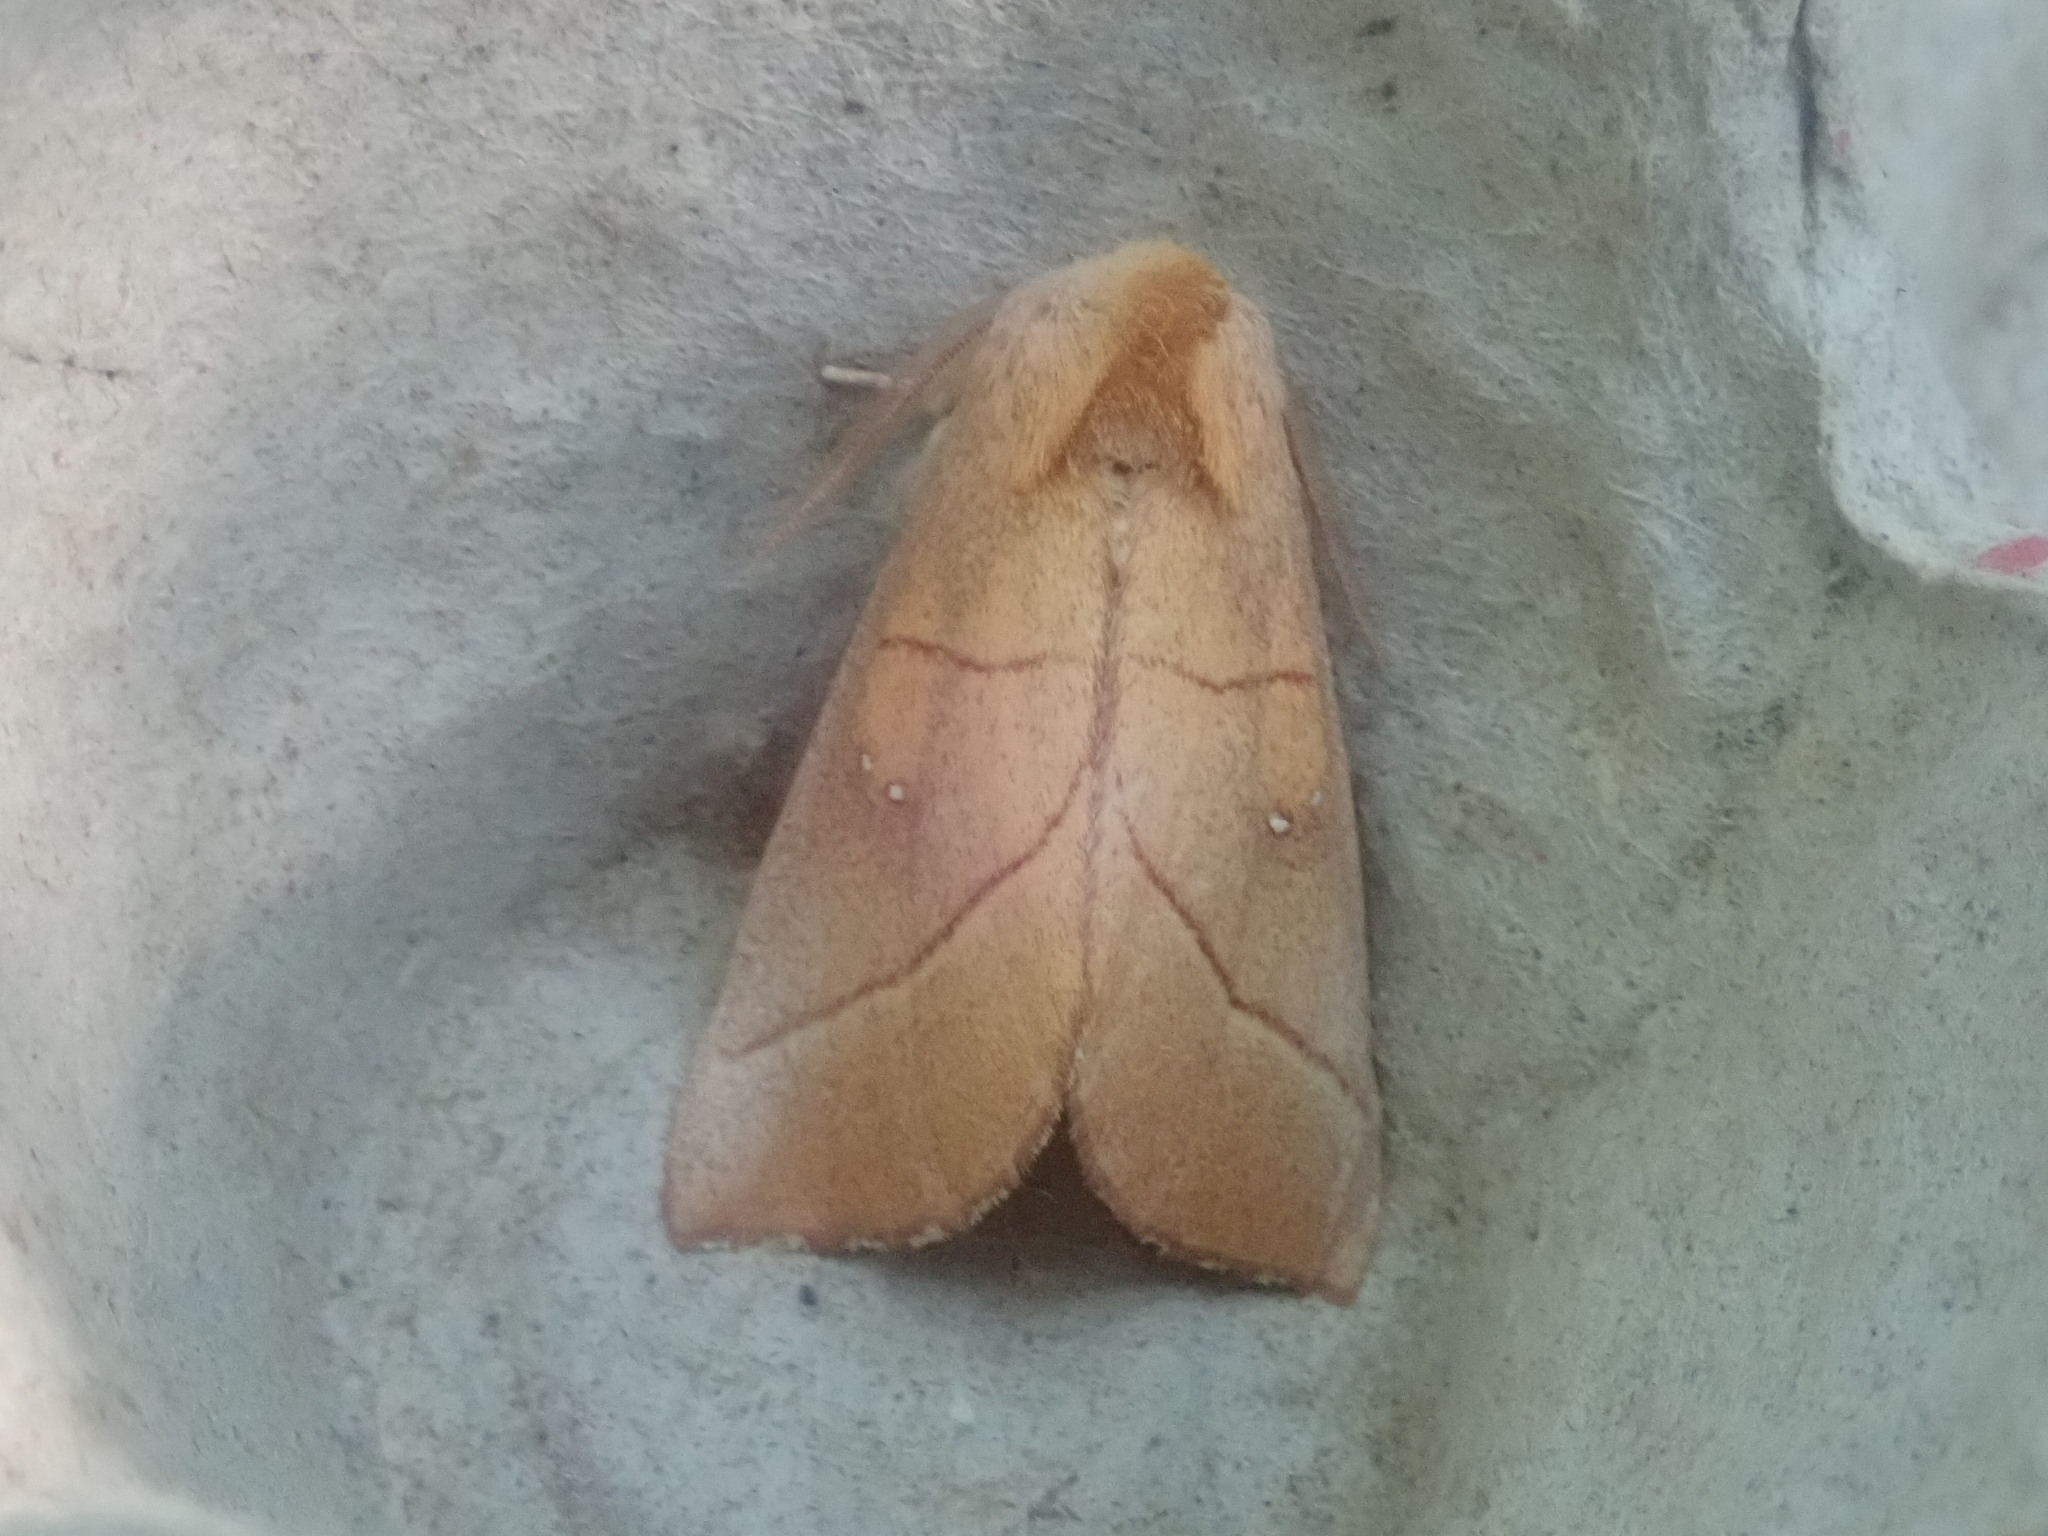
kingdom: Animalia
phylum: Arthropoda
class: Insecta
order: Lepidoptera
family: Notodontidae
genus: Nadata
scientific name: Nadata gibbosa
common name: White-dotted prominent
